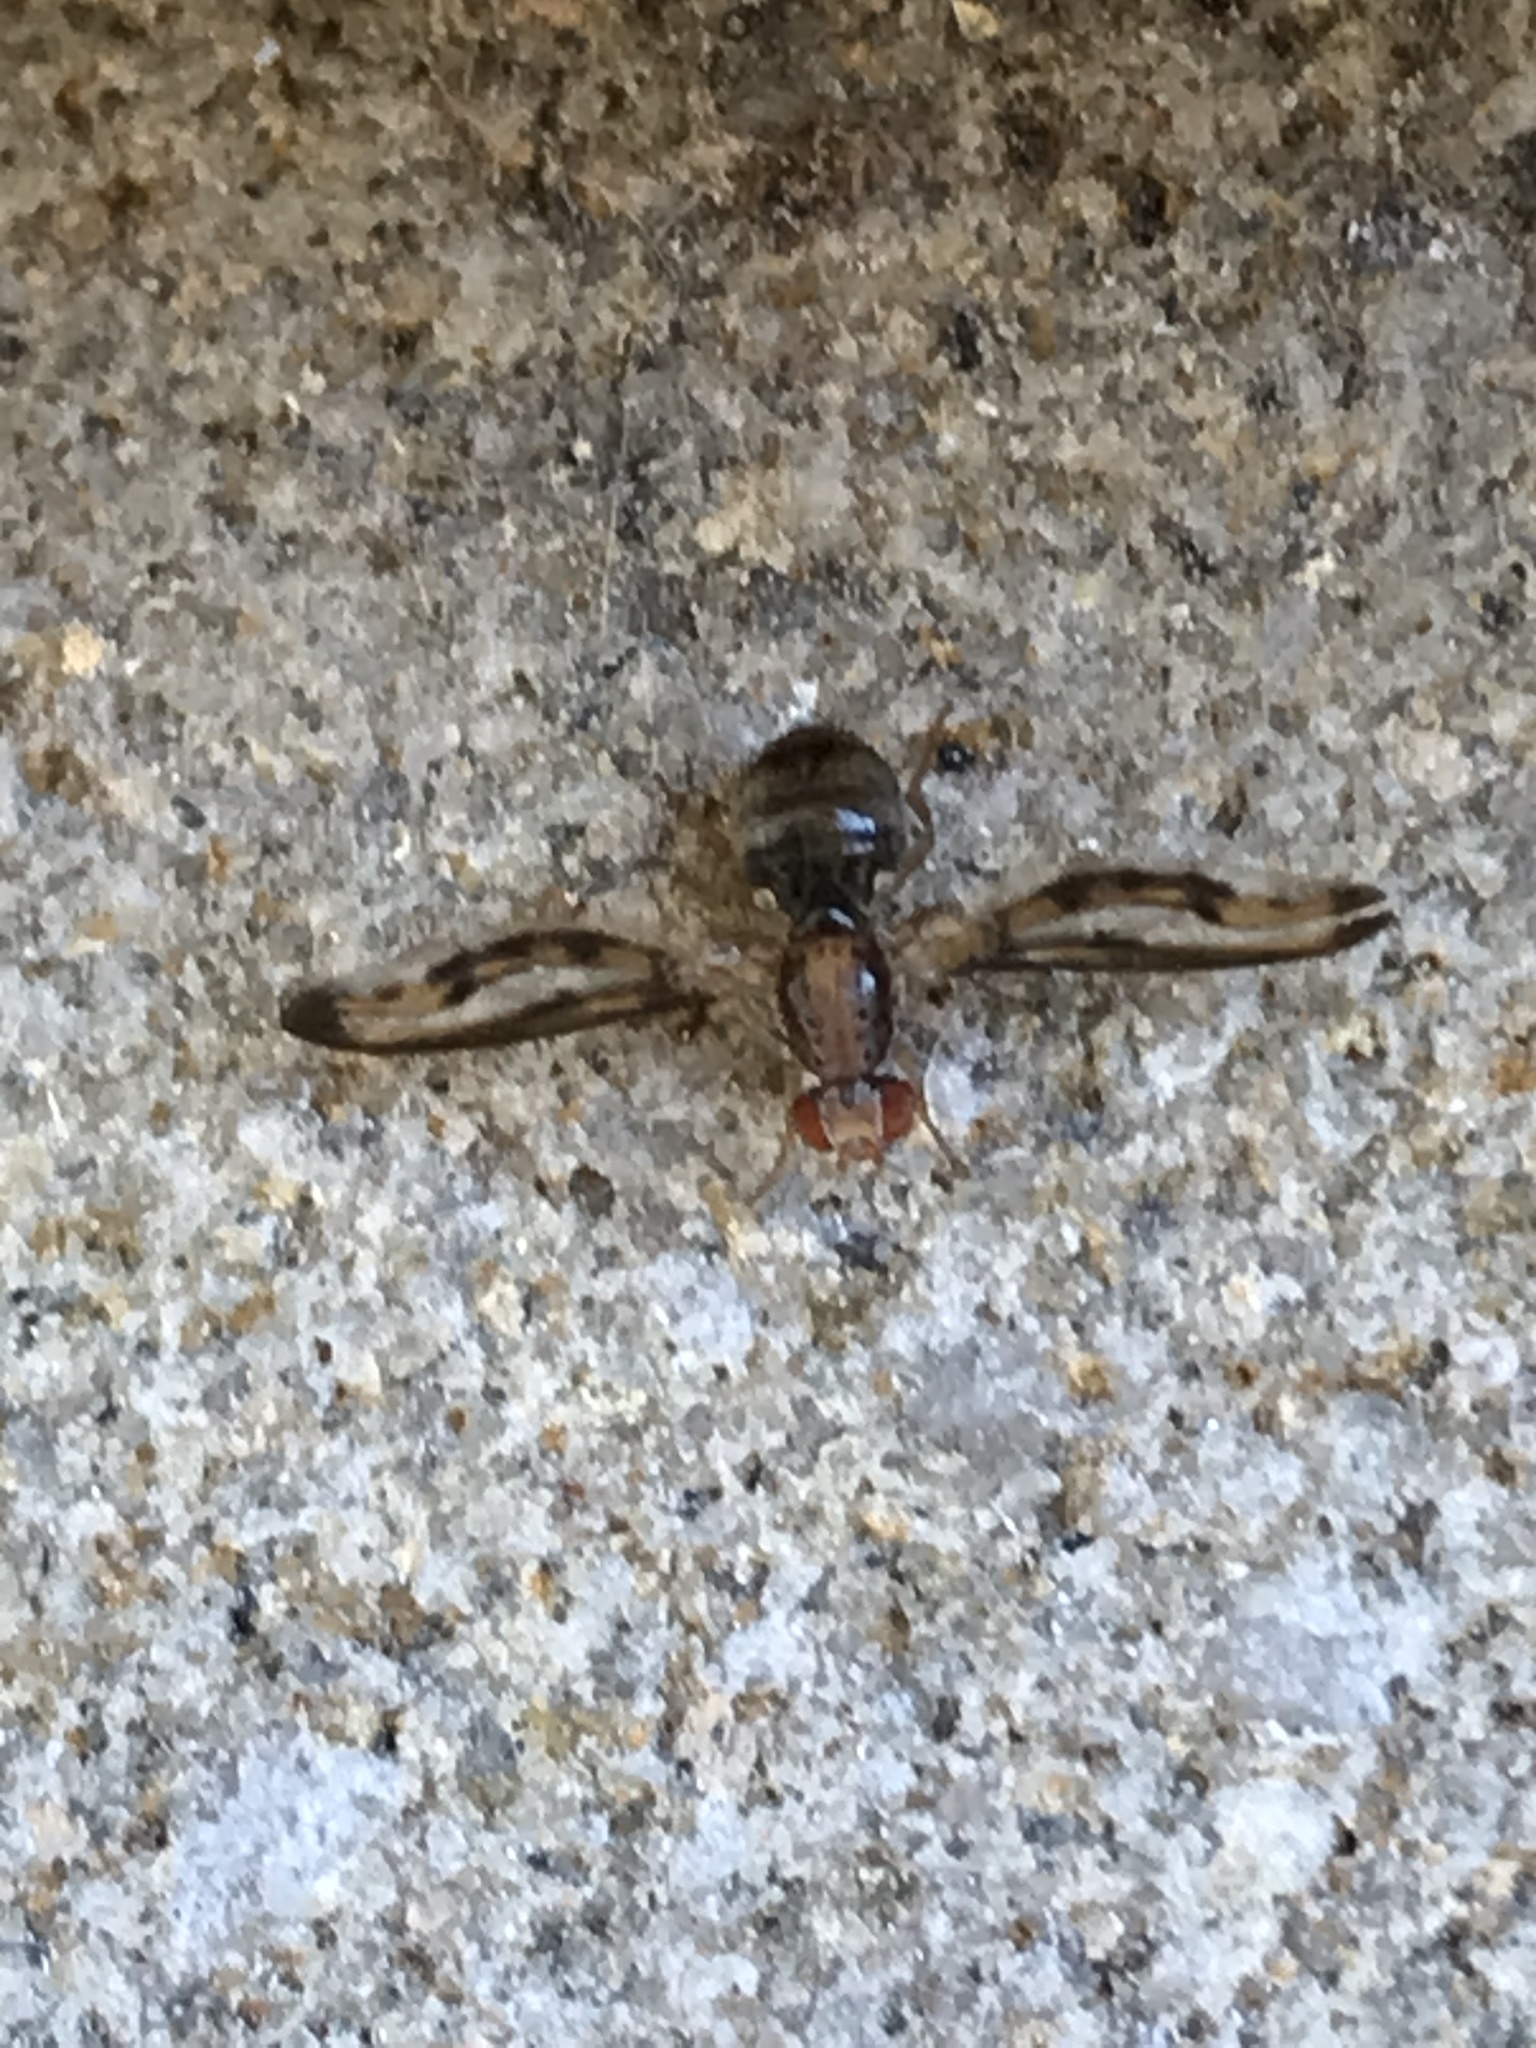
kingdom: Animalia
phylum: Arthropoda
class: Insecta
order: Diptera
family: Pallopteridae
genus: Toxonevra
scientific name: Toxonevra muliebris
